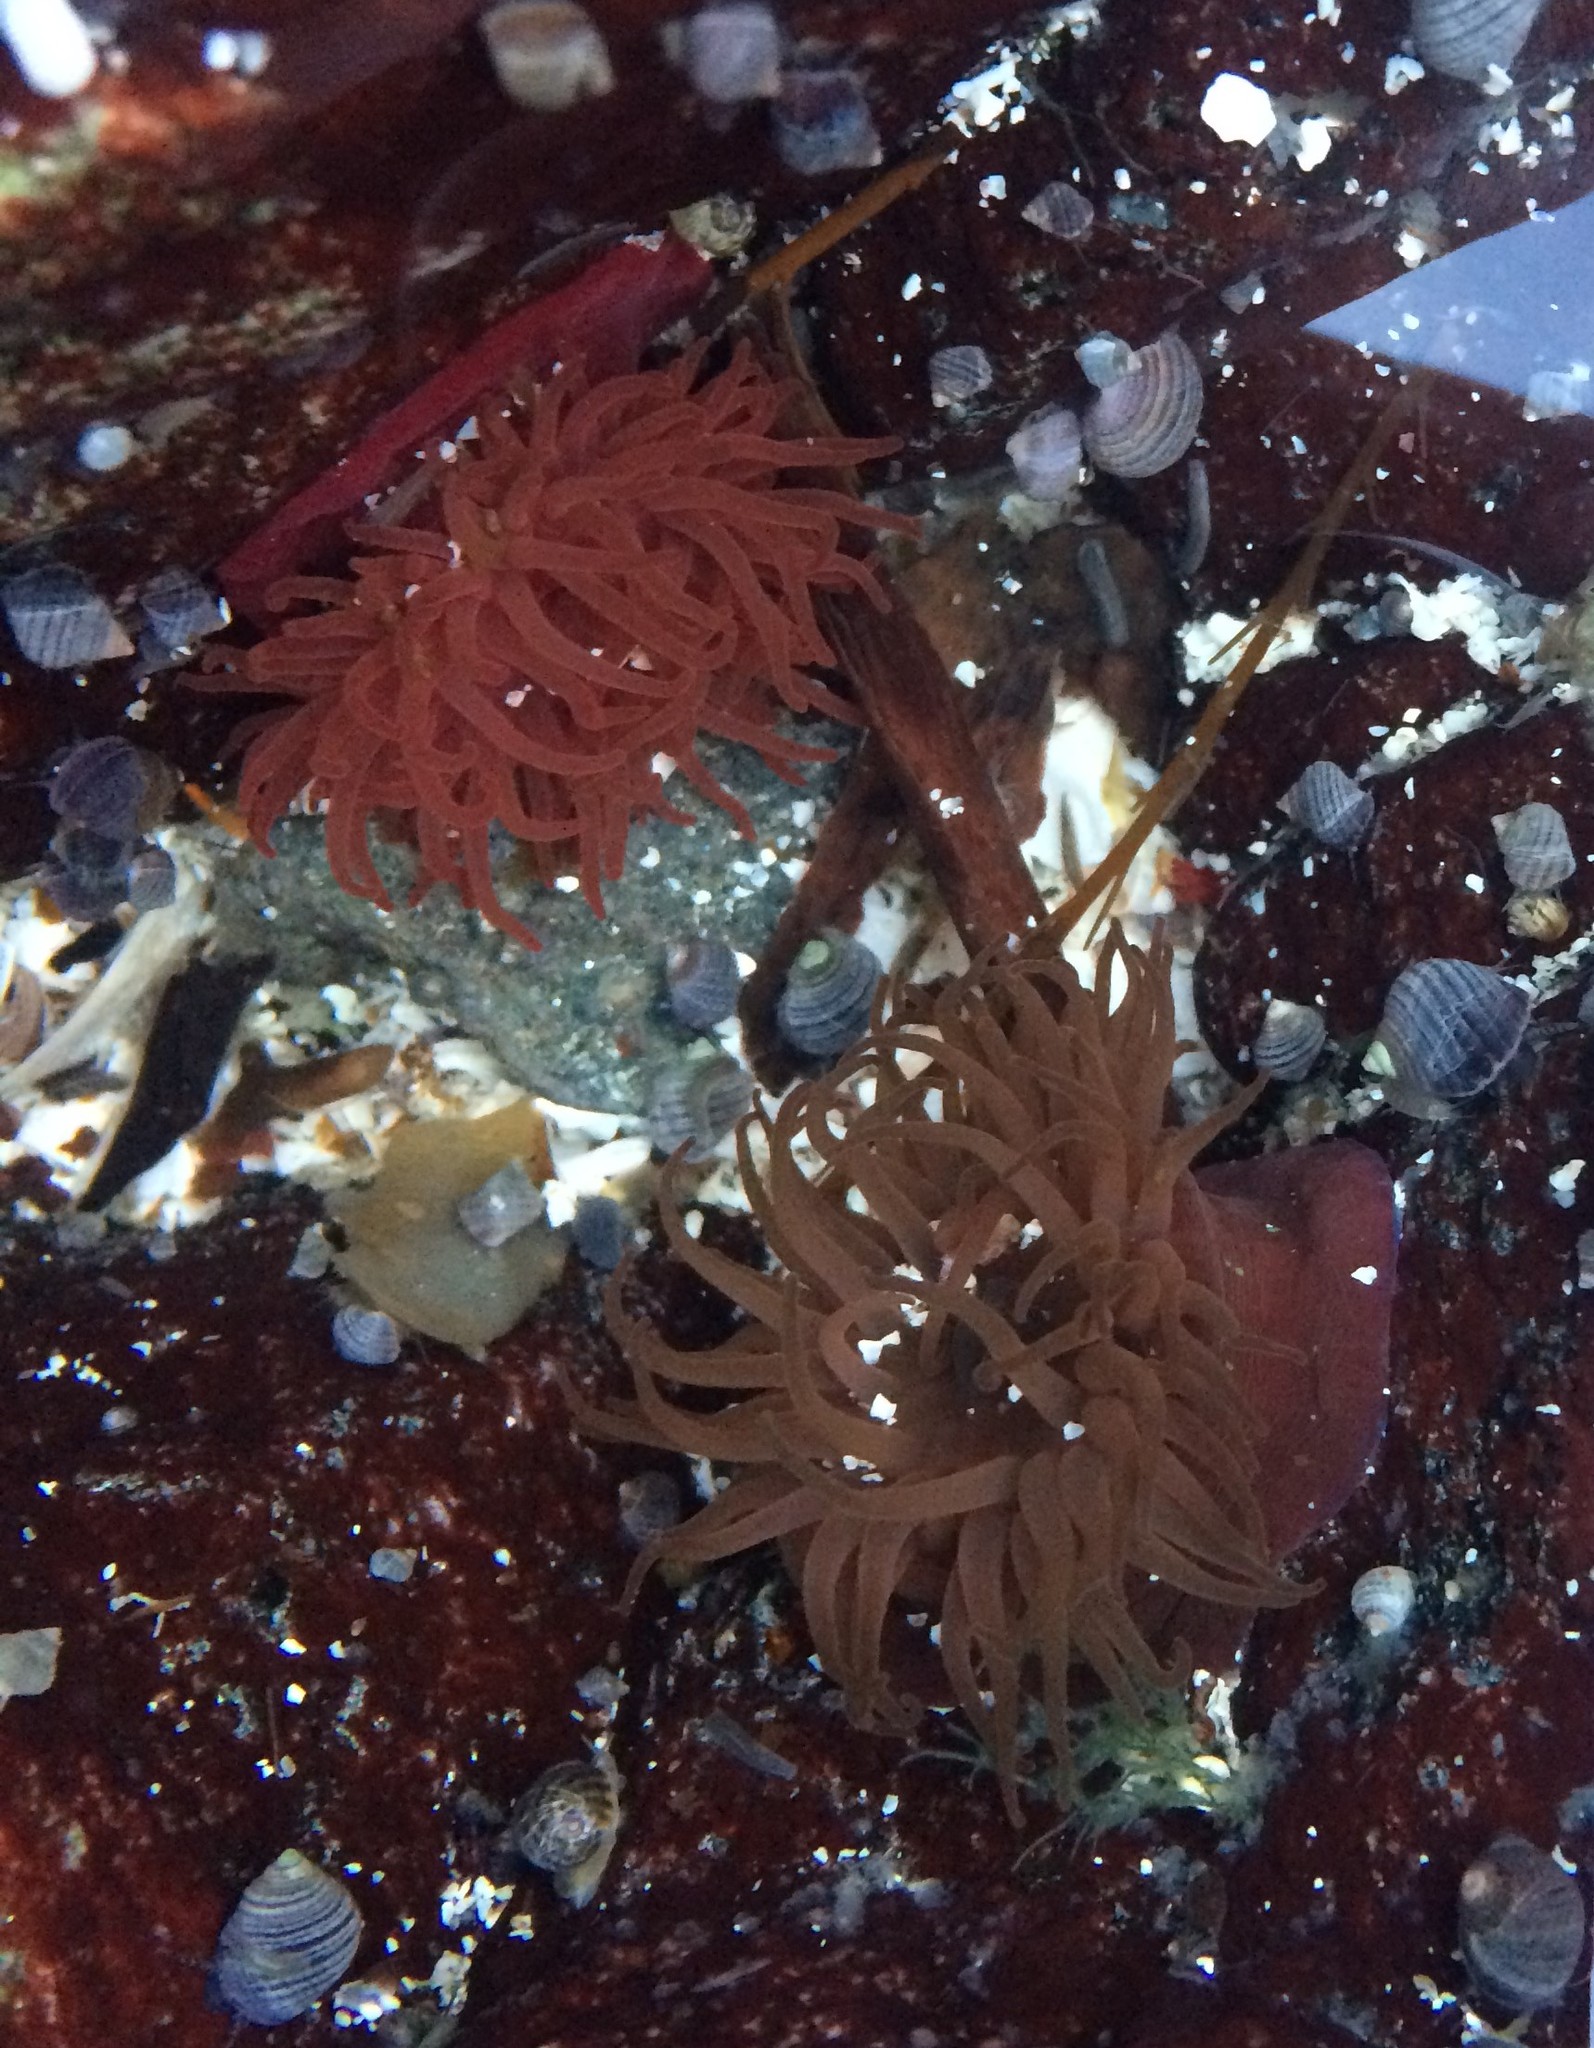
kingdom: Animalia
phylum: Cnidaria
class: Anthozoa
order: Actiniaria
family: Actiniidae
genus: Actinia
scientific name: Actinia equina
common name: Beadlet anemone
